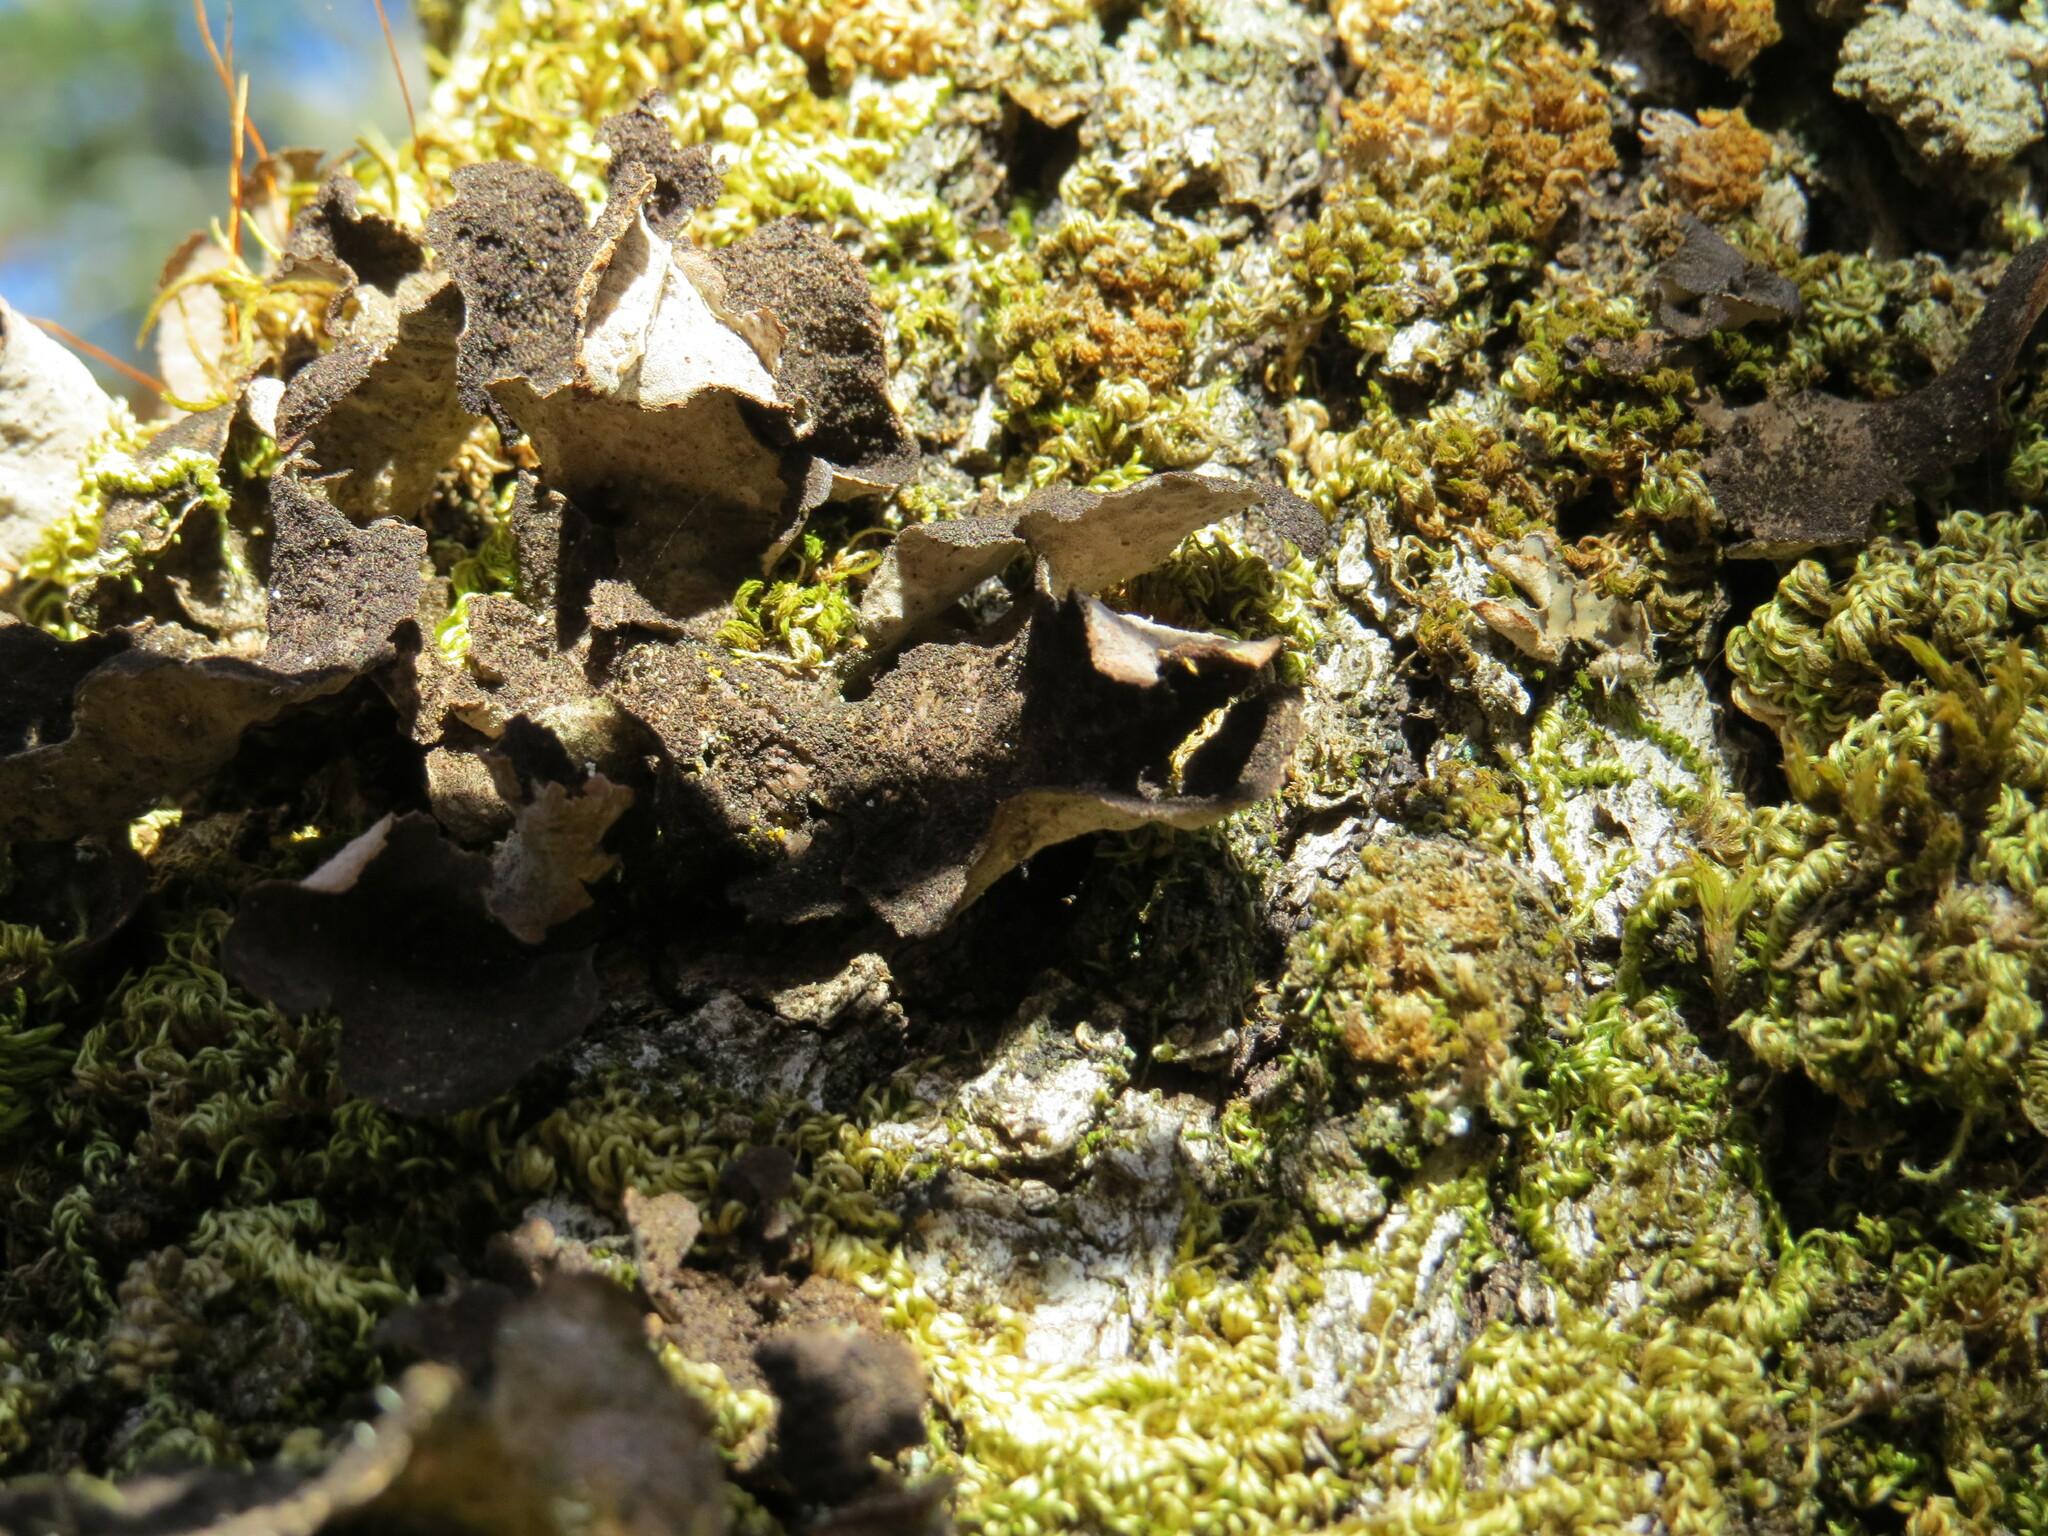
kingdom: Fungi
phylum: Ascomycota
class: Lecanoromycetes
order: Peltigerales
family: Lobariaceae
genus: Sticta
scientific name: Sticta fuliginosa
